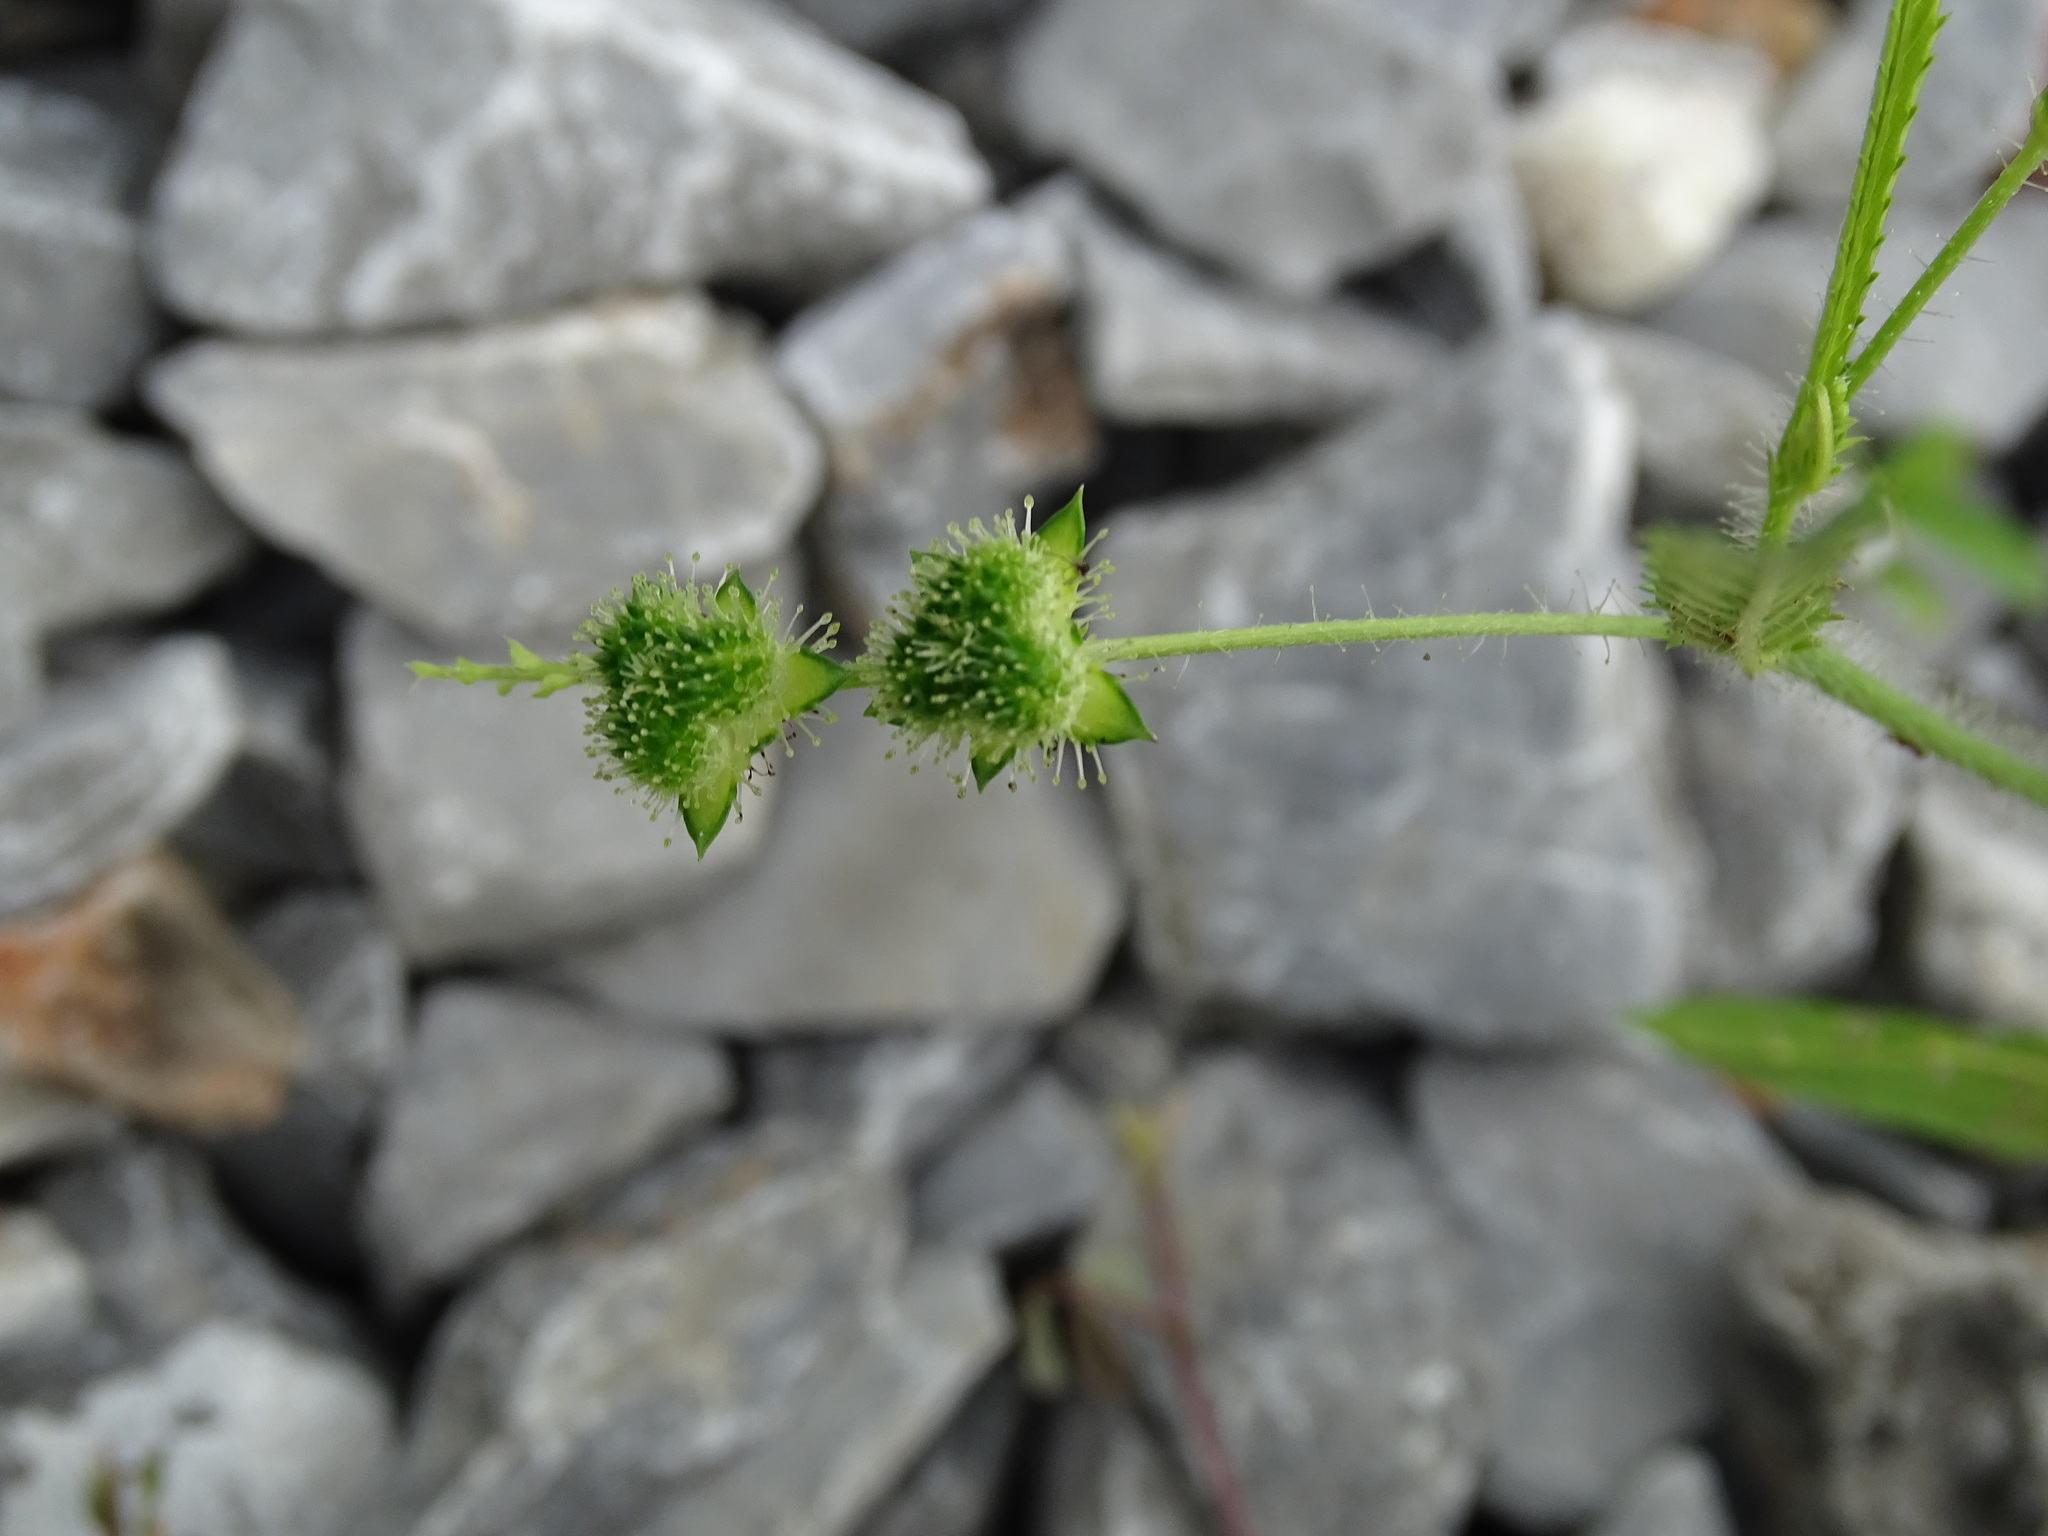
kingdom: Plantae
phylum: Tracheophyta
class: Magnoliopsida
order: Malpighiales
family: Euphorbiaceae
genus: Caperonia
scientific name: Caperonia palustris
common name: Sacatrapo
